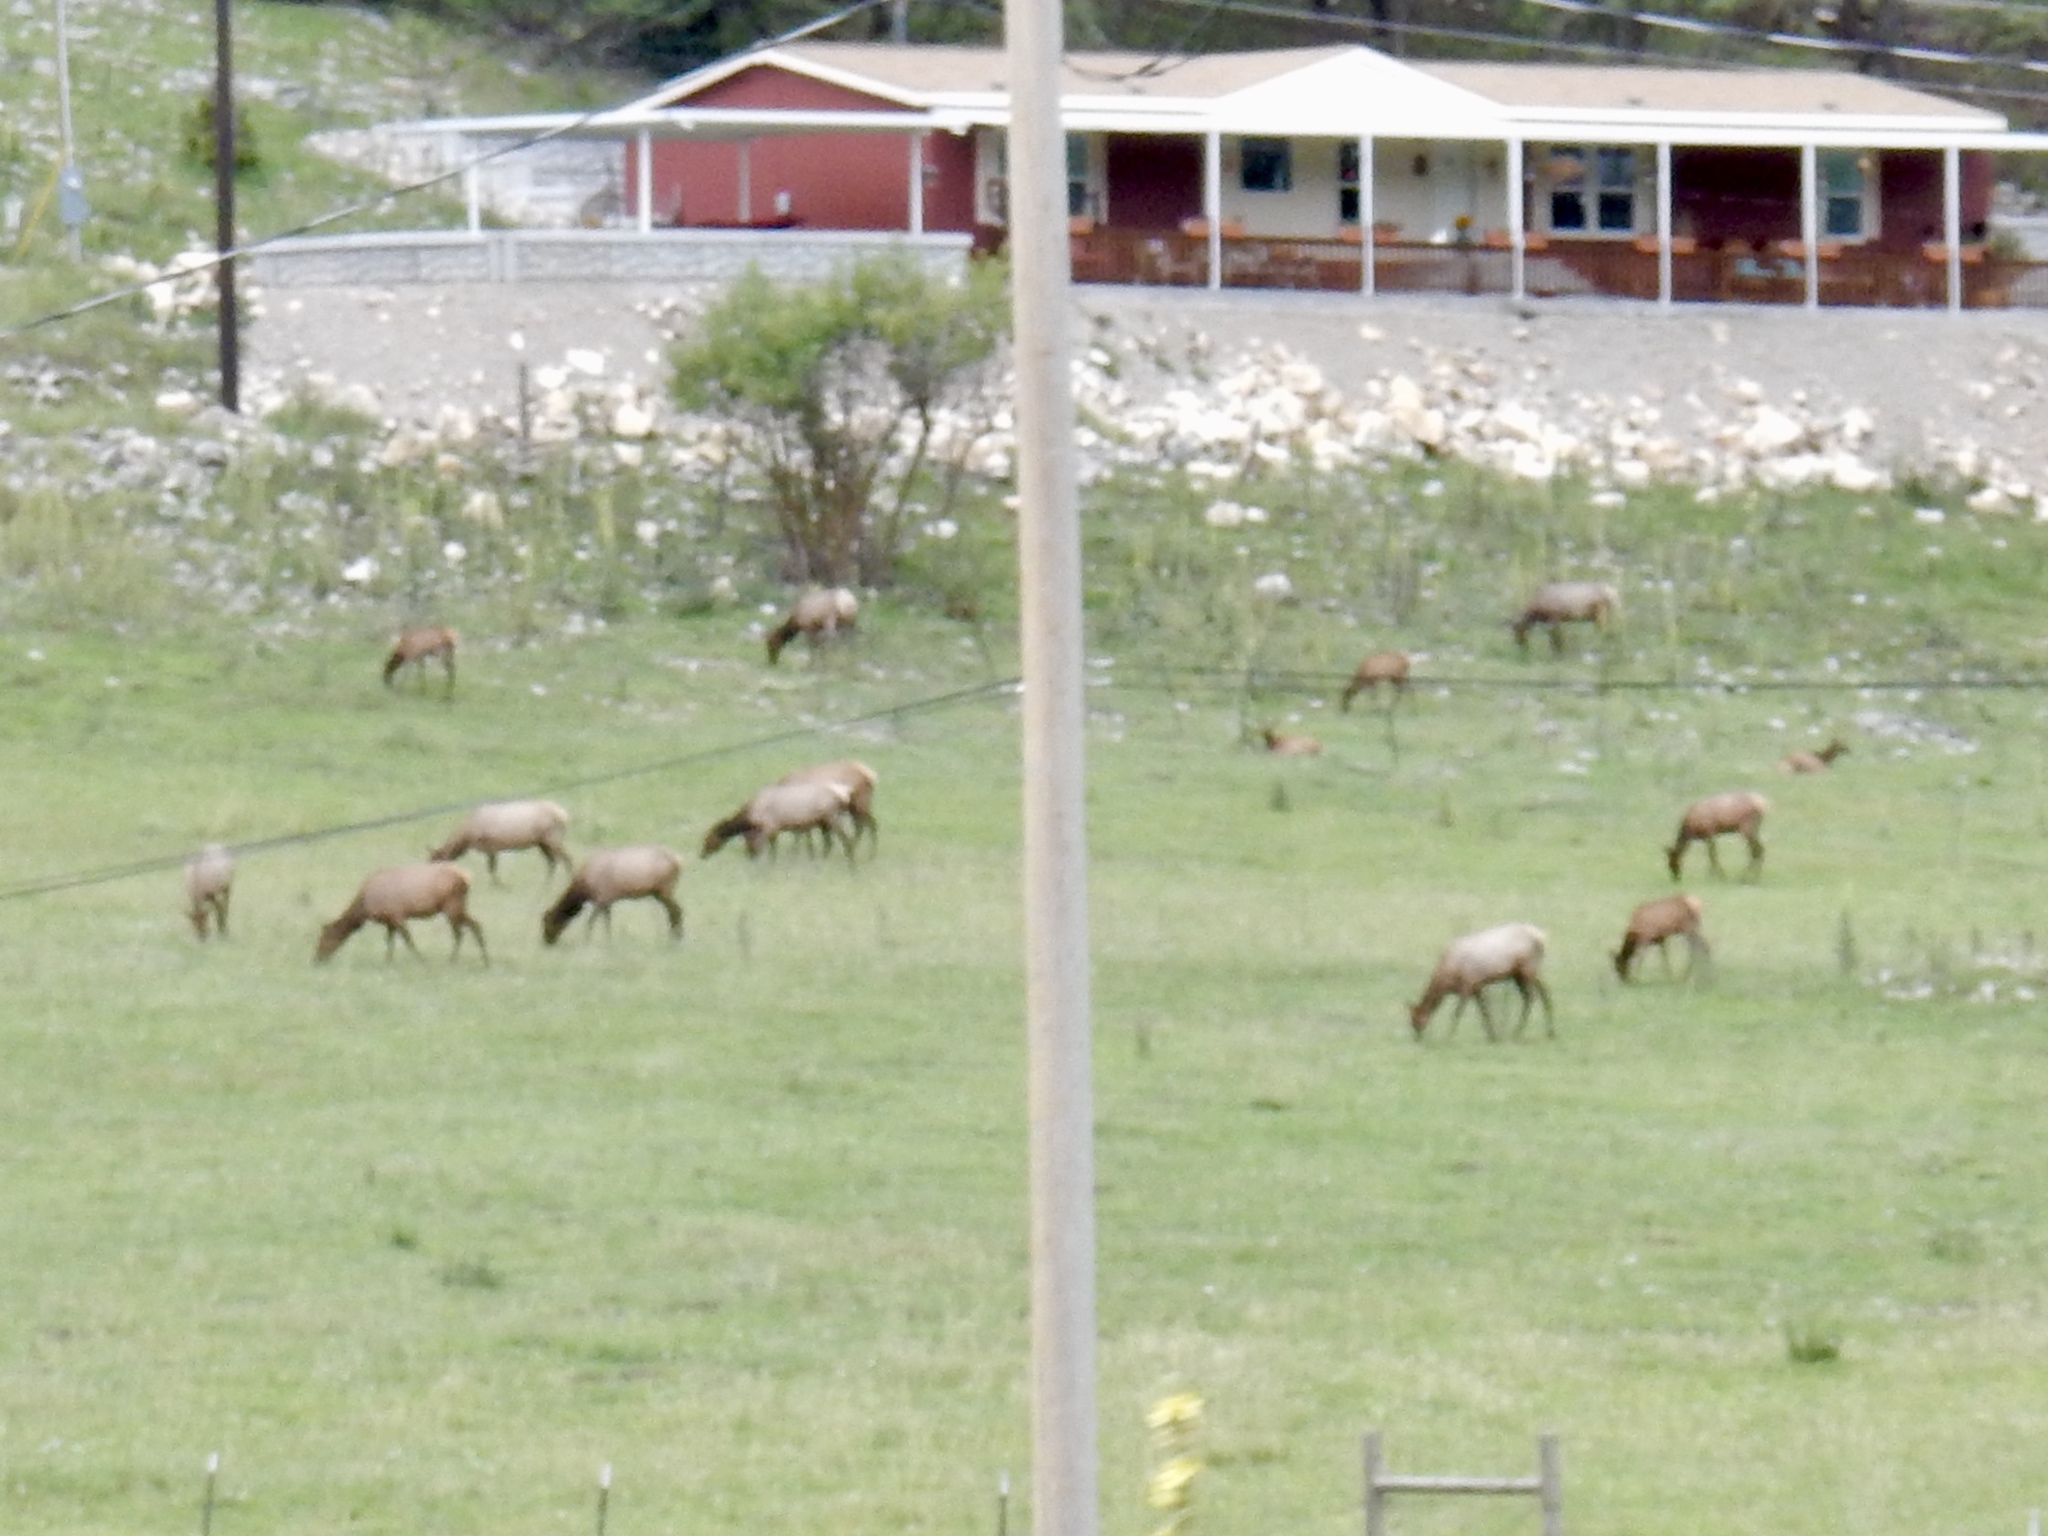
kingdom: Animalia
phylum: Chordata
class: Mammalia
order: Artiodactyla
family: Cervidae
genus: Cervus
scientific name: Cervus elaphus
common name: Red deer
